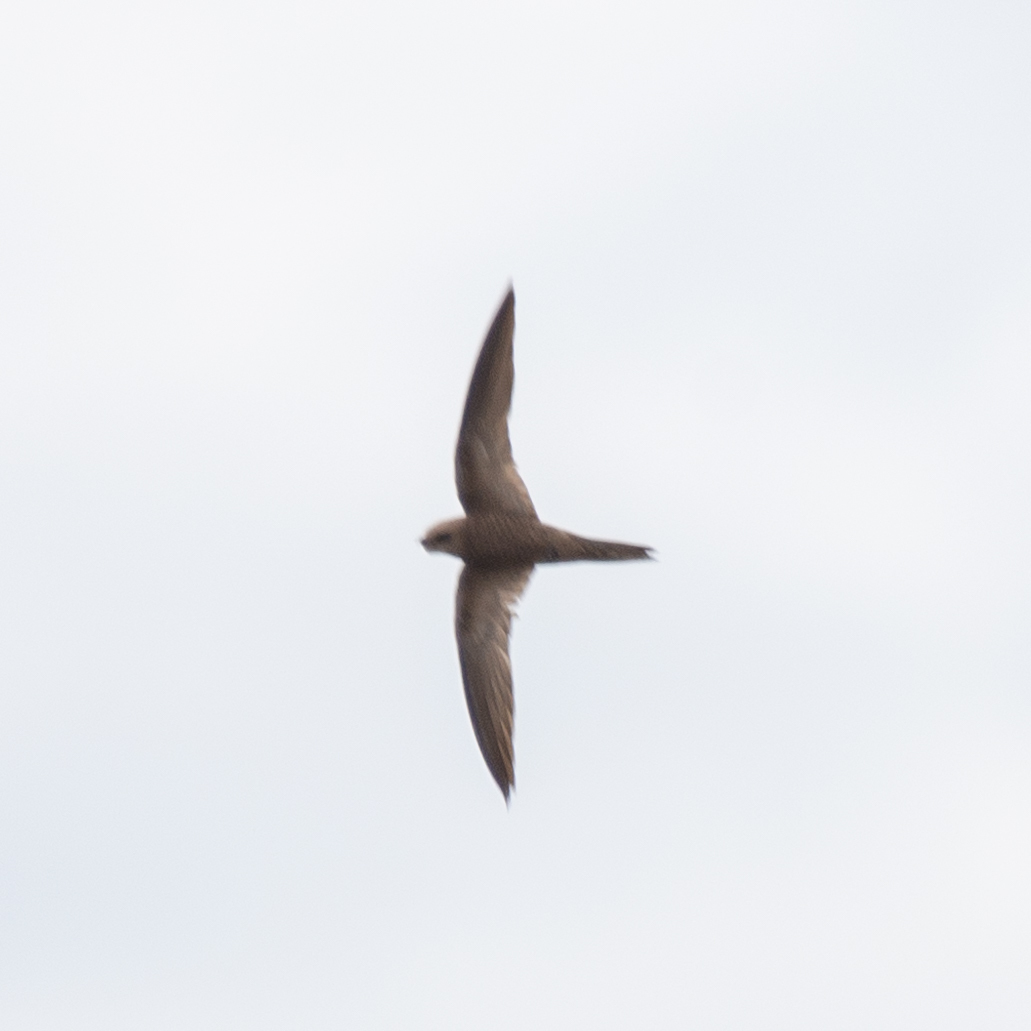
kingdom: Animalia
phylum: Chordata
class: Aves
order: Apodiformes
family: Apodidae
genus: Apus
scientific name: Apus pallidus
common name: Pallid swift
